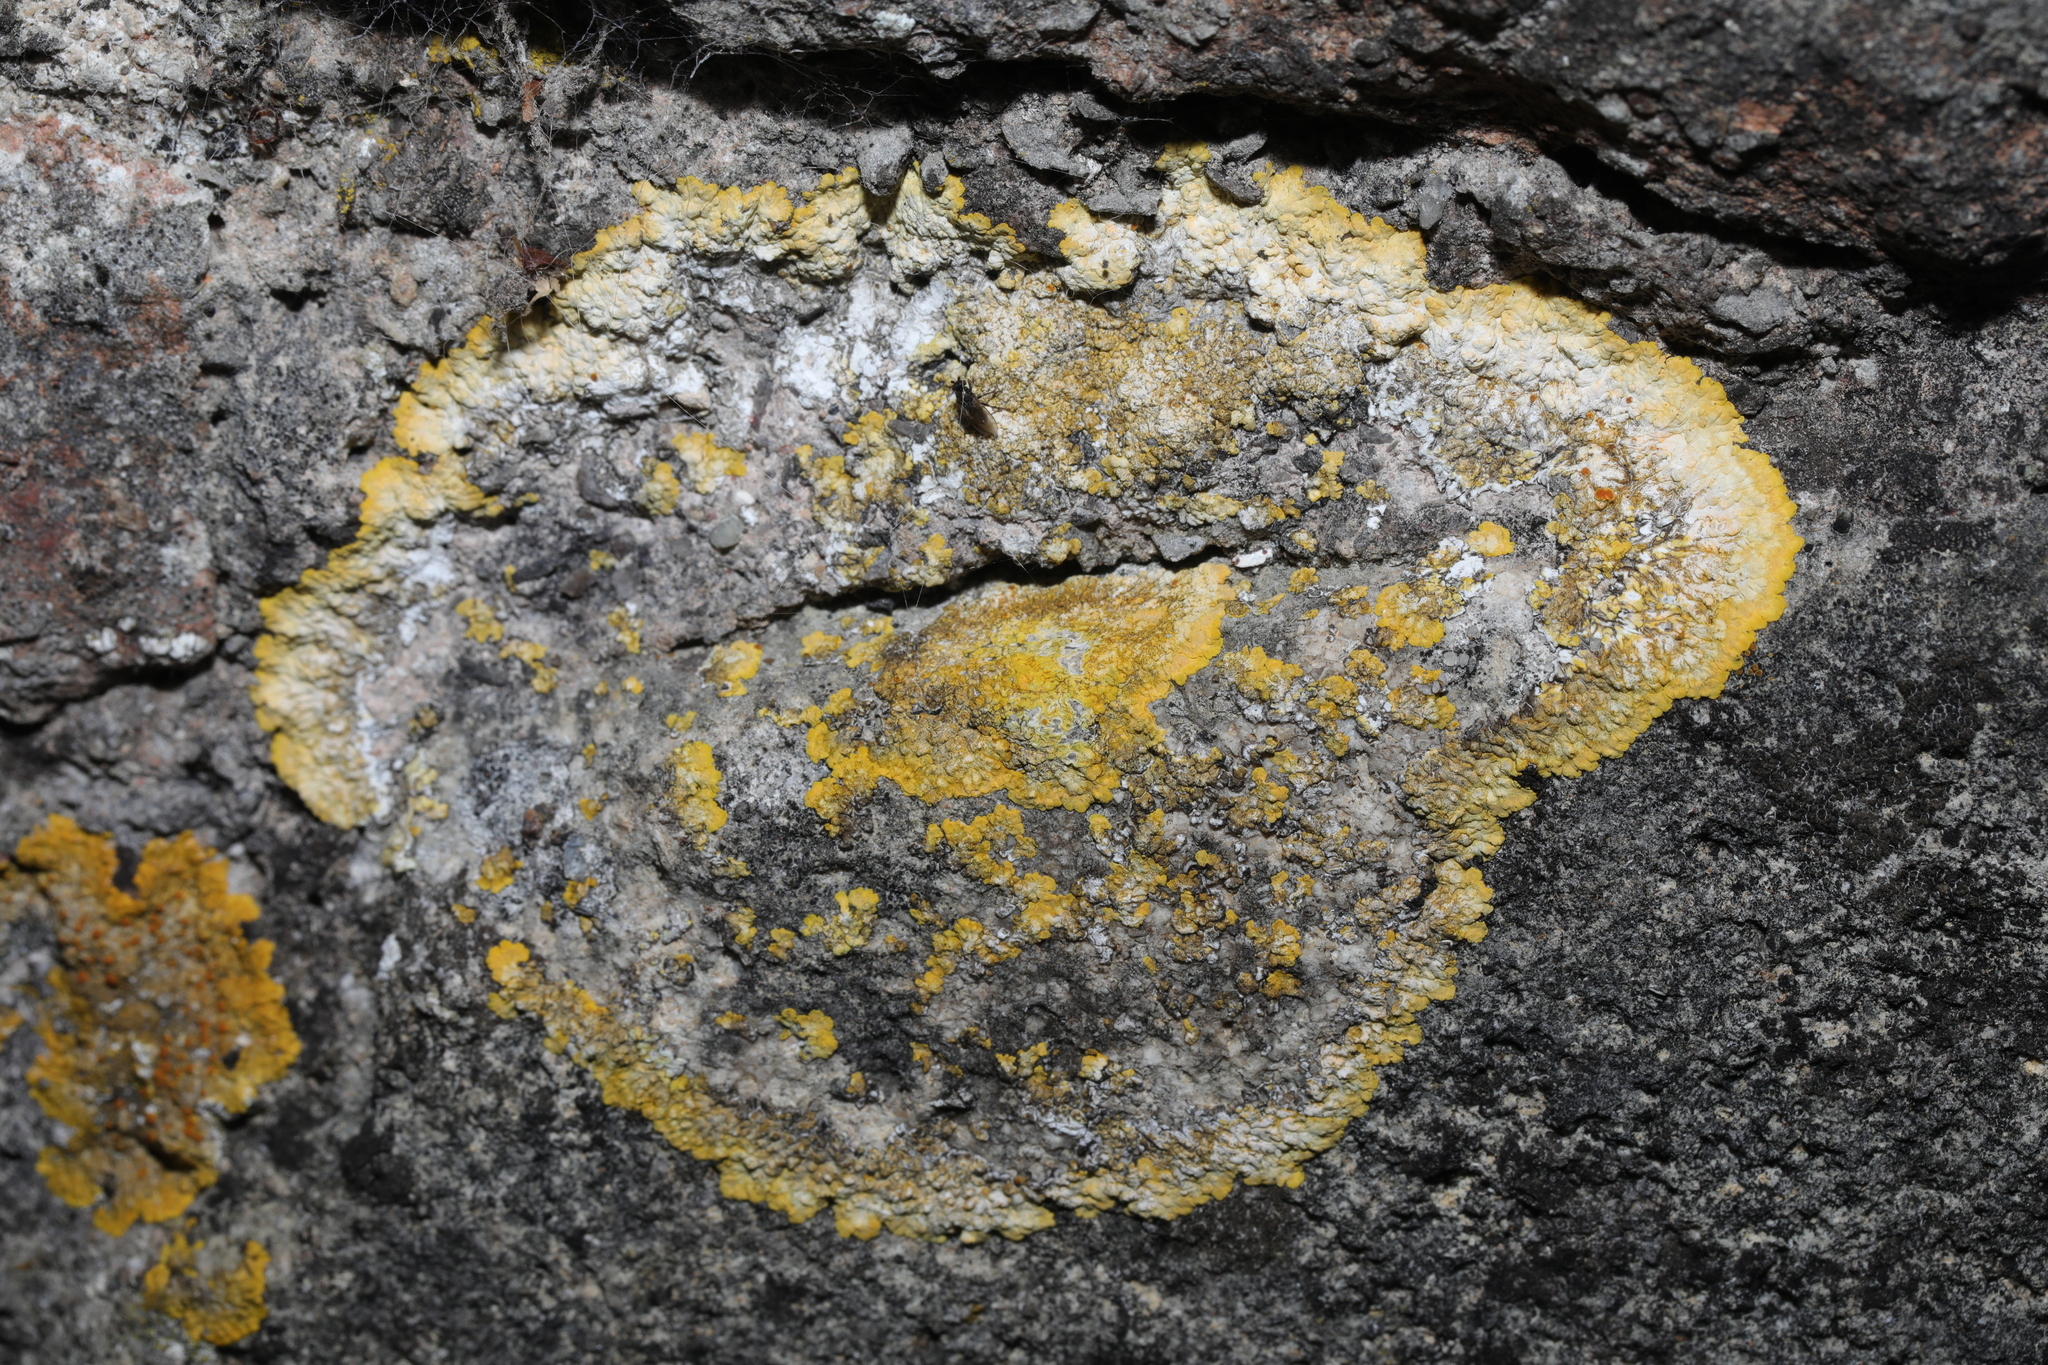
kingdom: Fungi
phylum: Ascomycota
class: Lecanoromycetes
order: Teloschistales
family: Teloschistaceae
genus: Variospora
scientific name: Variospora aurantia
